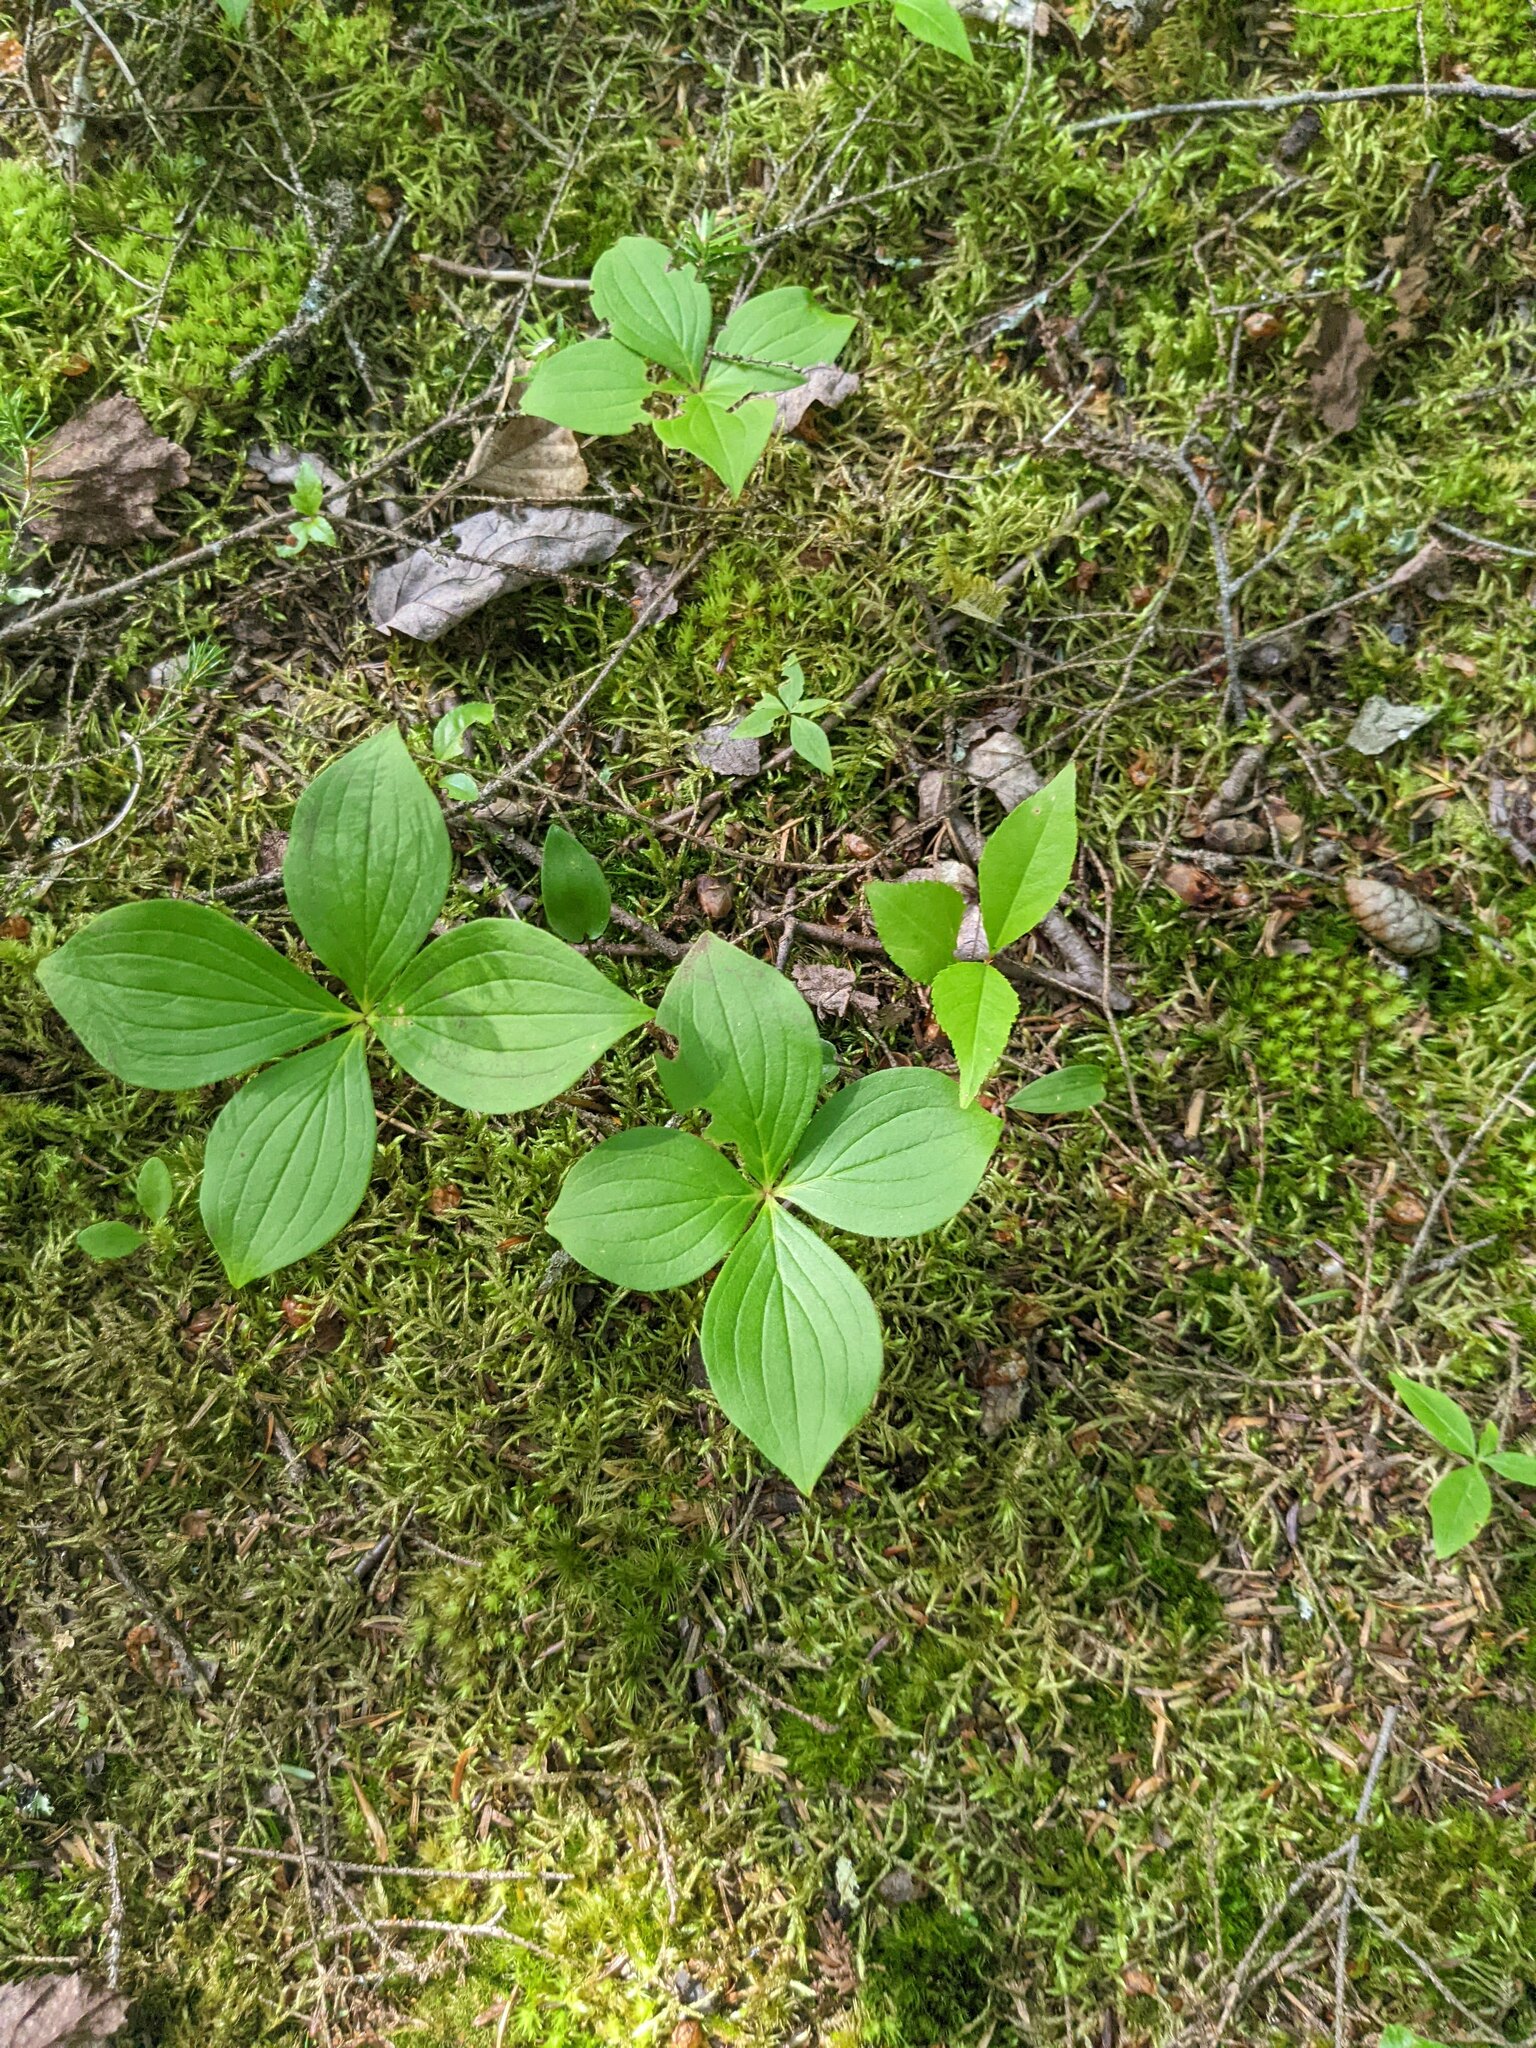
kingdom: Plantae
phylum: Tracheophyta
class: Magnoliopsida
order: Cornales
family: Cornaceae
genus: Cornus
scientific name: Cornus canadensis
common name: Creeping dogwood
